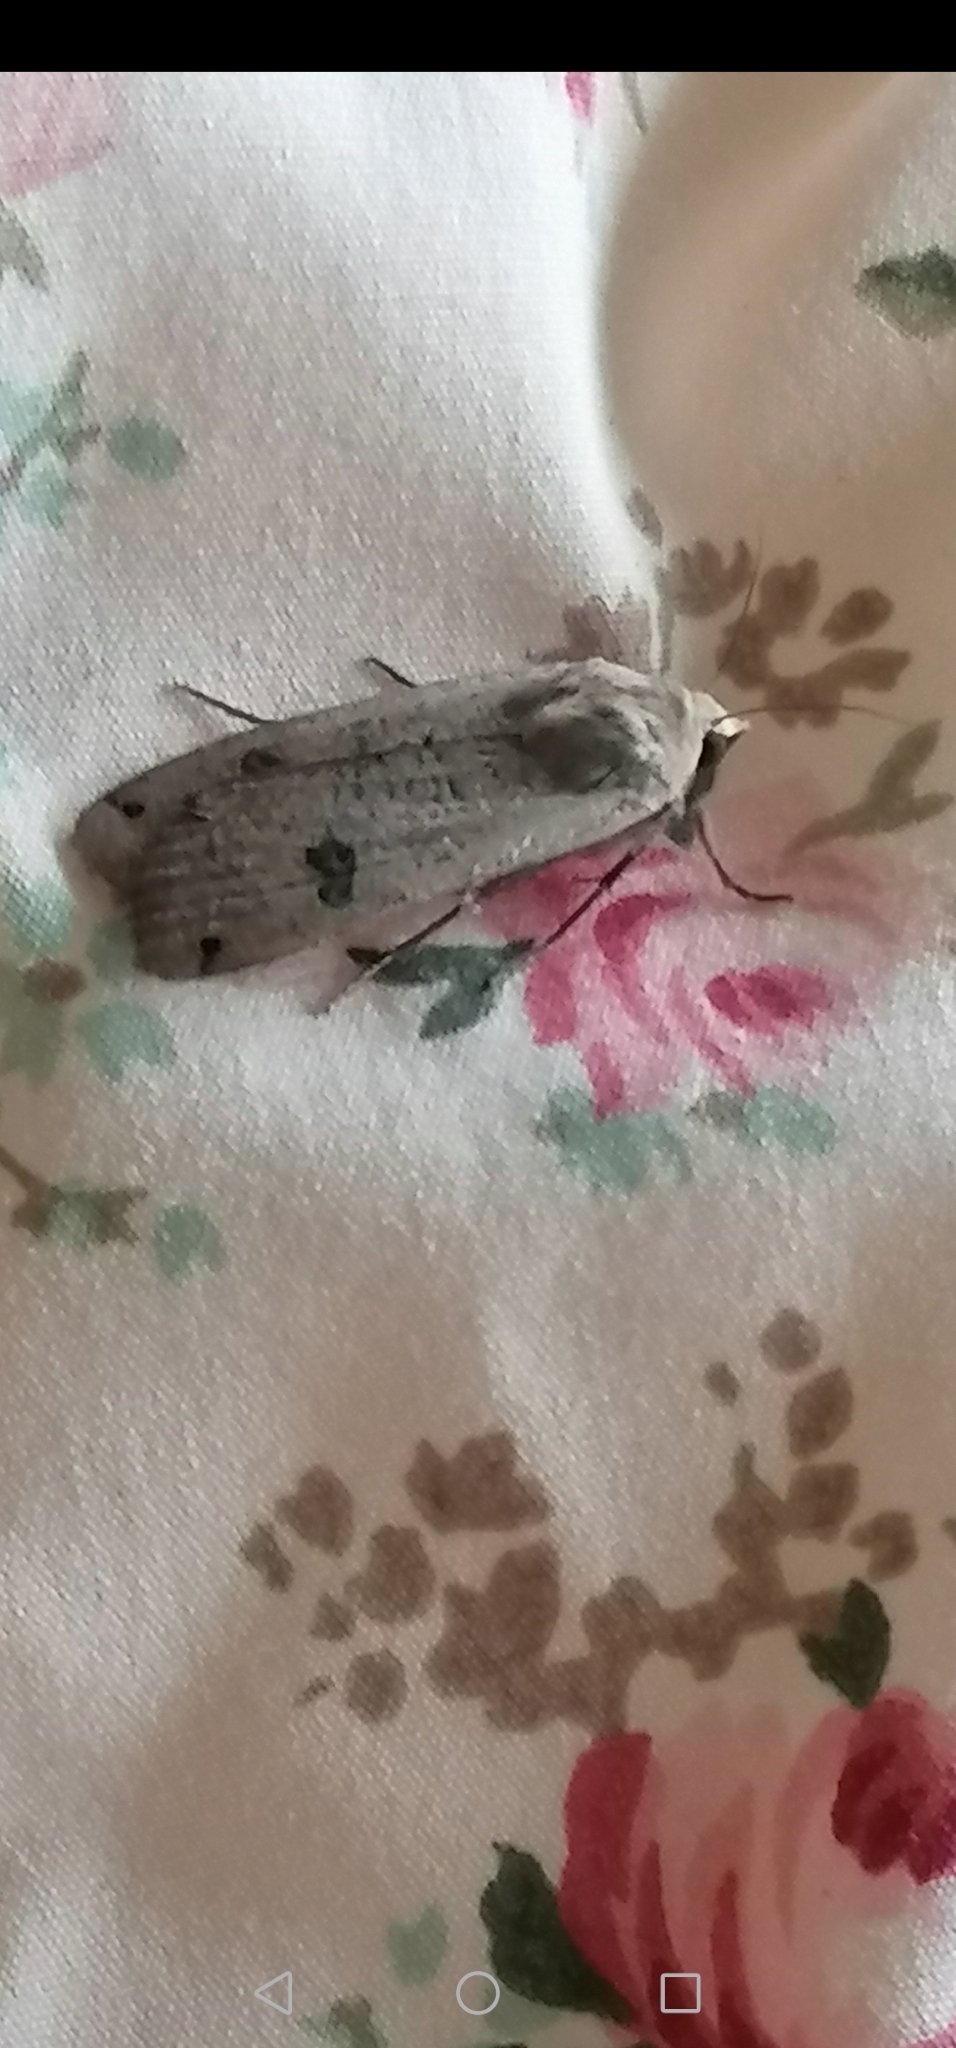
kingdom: Animalia
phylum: Arthropoda
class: Insecta
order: Lepidoptera
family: Noctuidae
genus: Noctua
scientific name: Noctua pronuba
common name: Large yellow underwing
